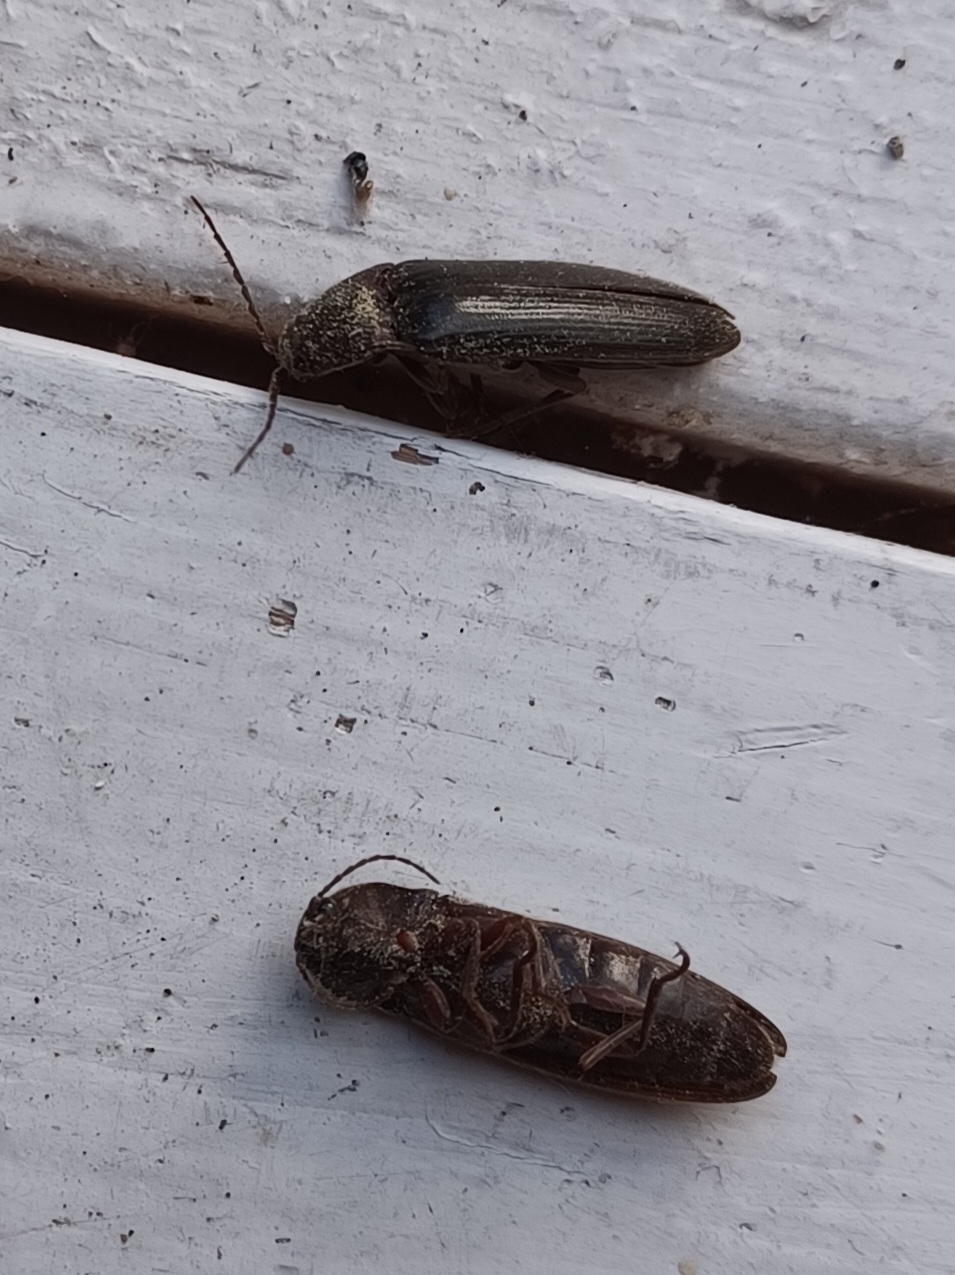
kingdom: Animalia
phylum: Arthropoda
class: Insecta
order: Coleoptera
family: Elateridae
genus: Melanotus
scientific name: Melanotus castanipes
